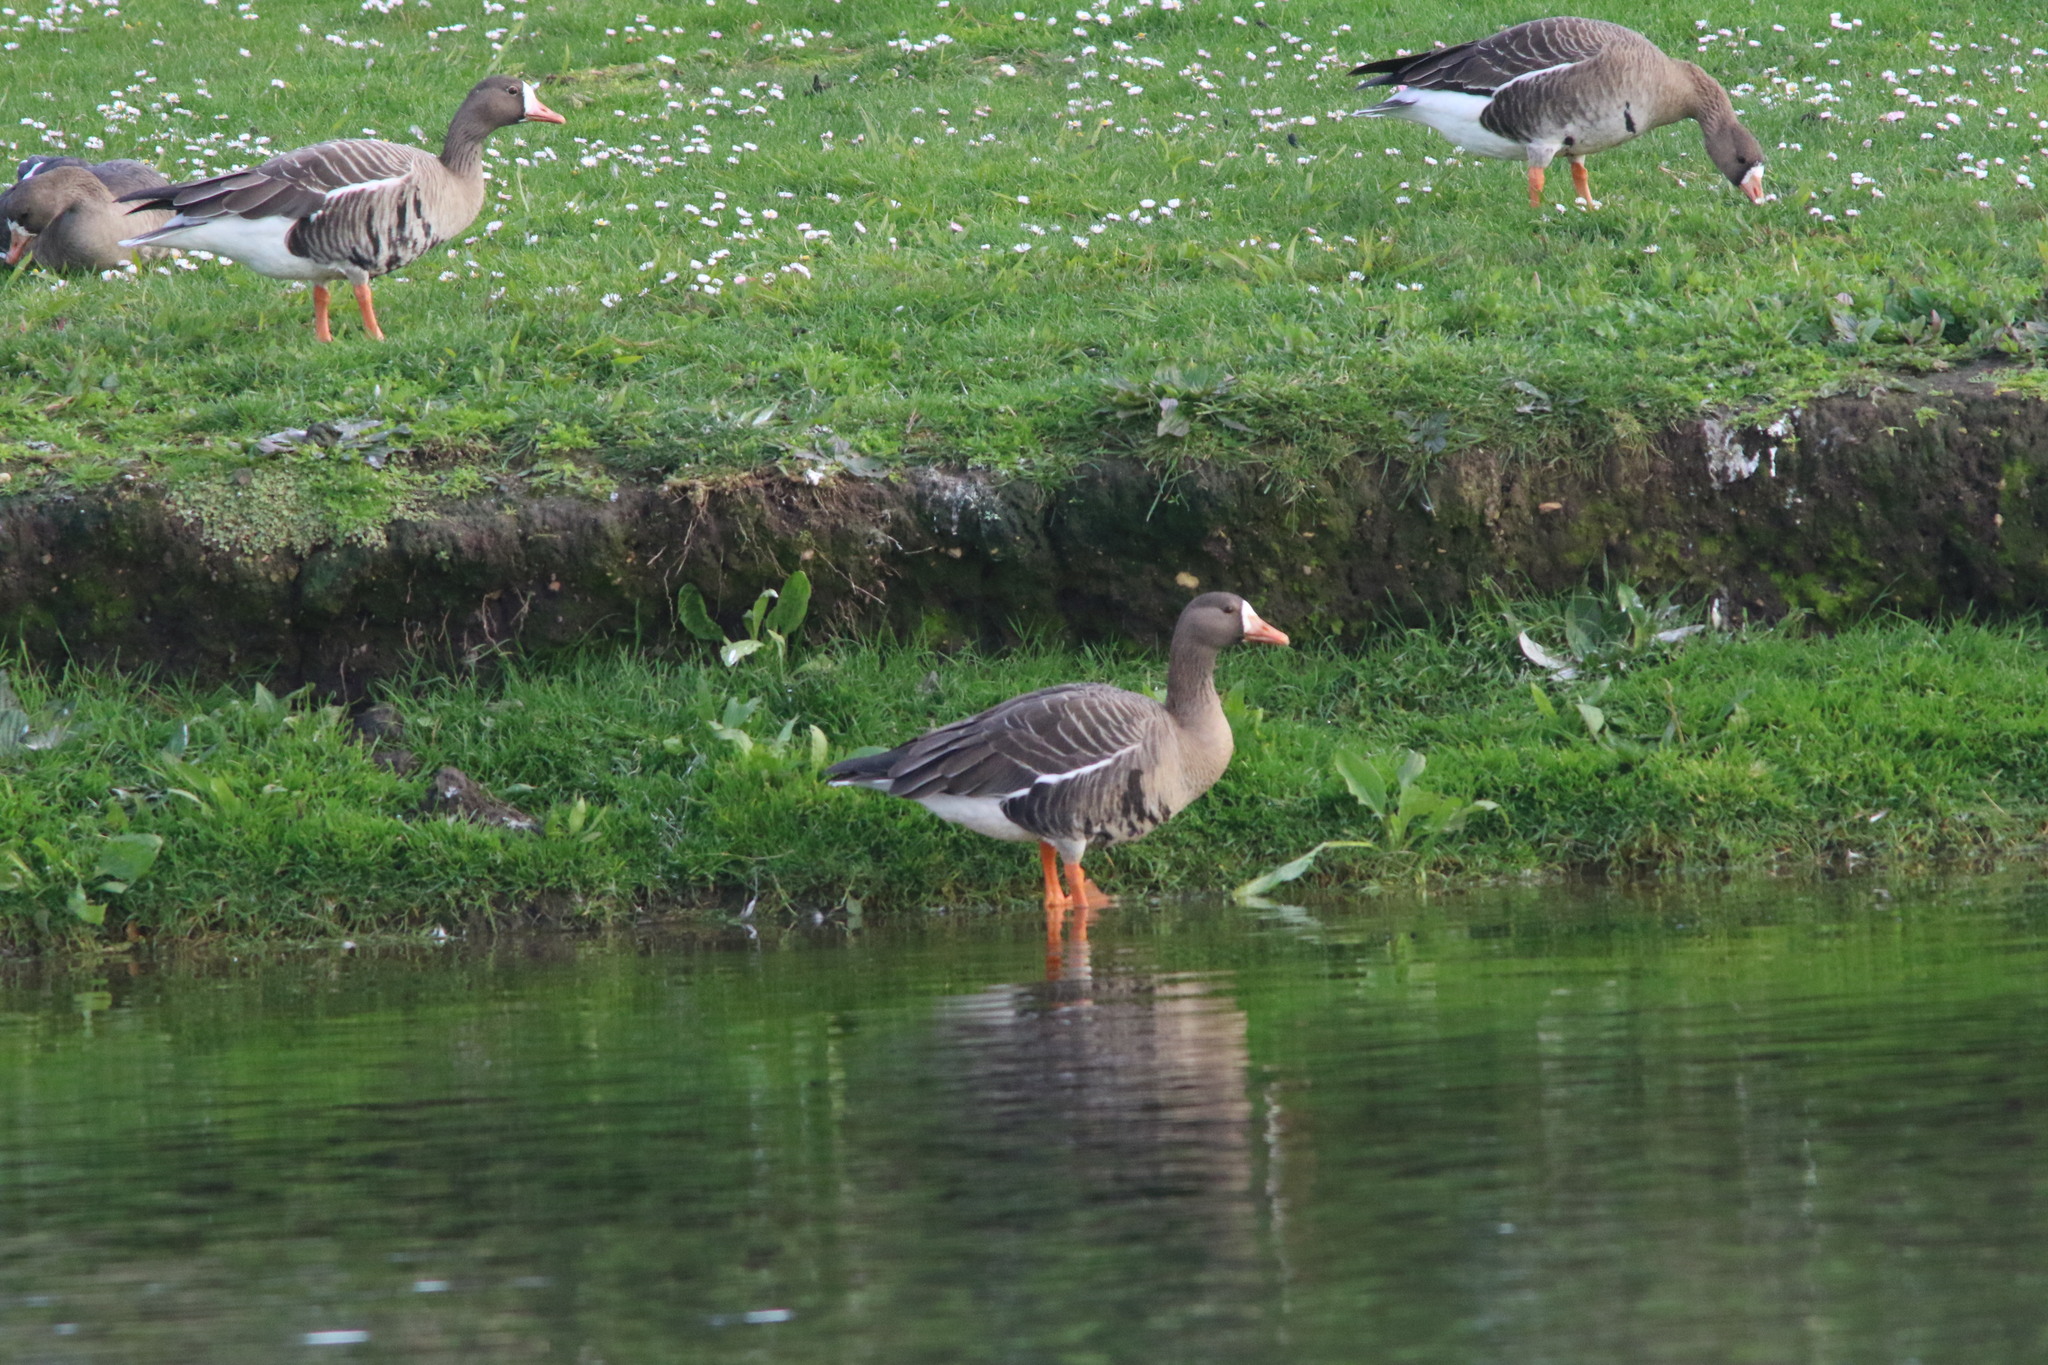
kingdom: Animalia
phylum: Chordata
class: Aves
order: Anseriformes
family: Anatidae
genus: Anser
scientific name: Anser albifrons
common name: Greater white-fronted goose
